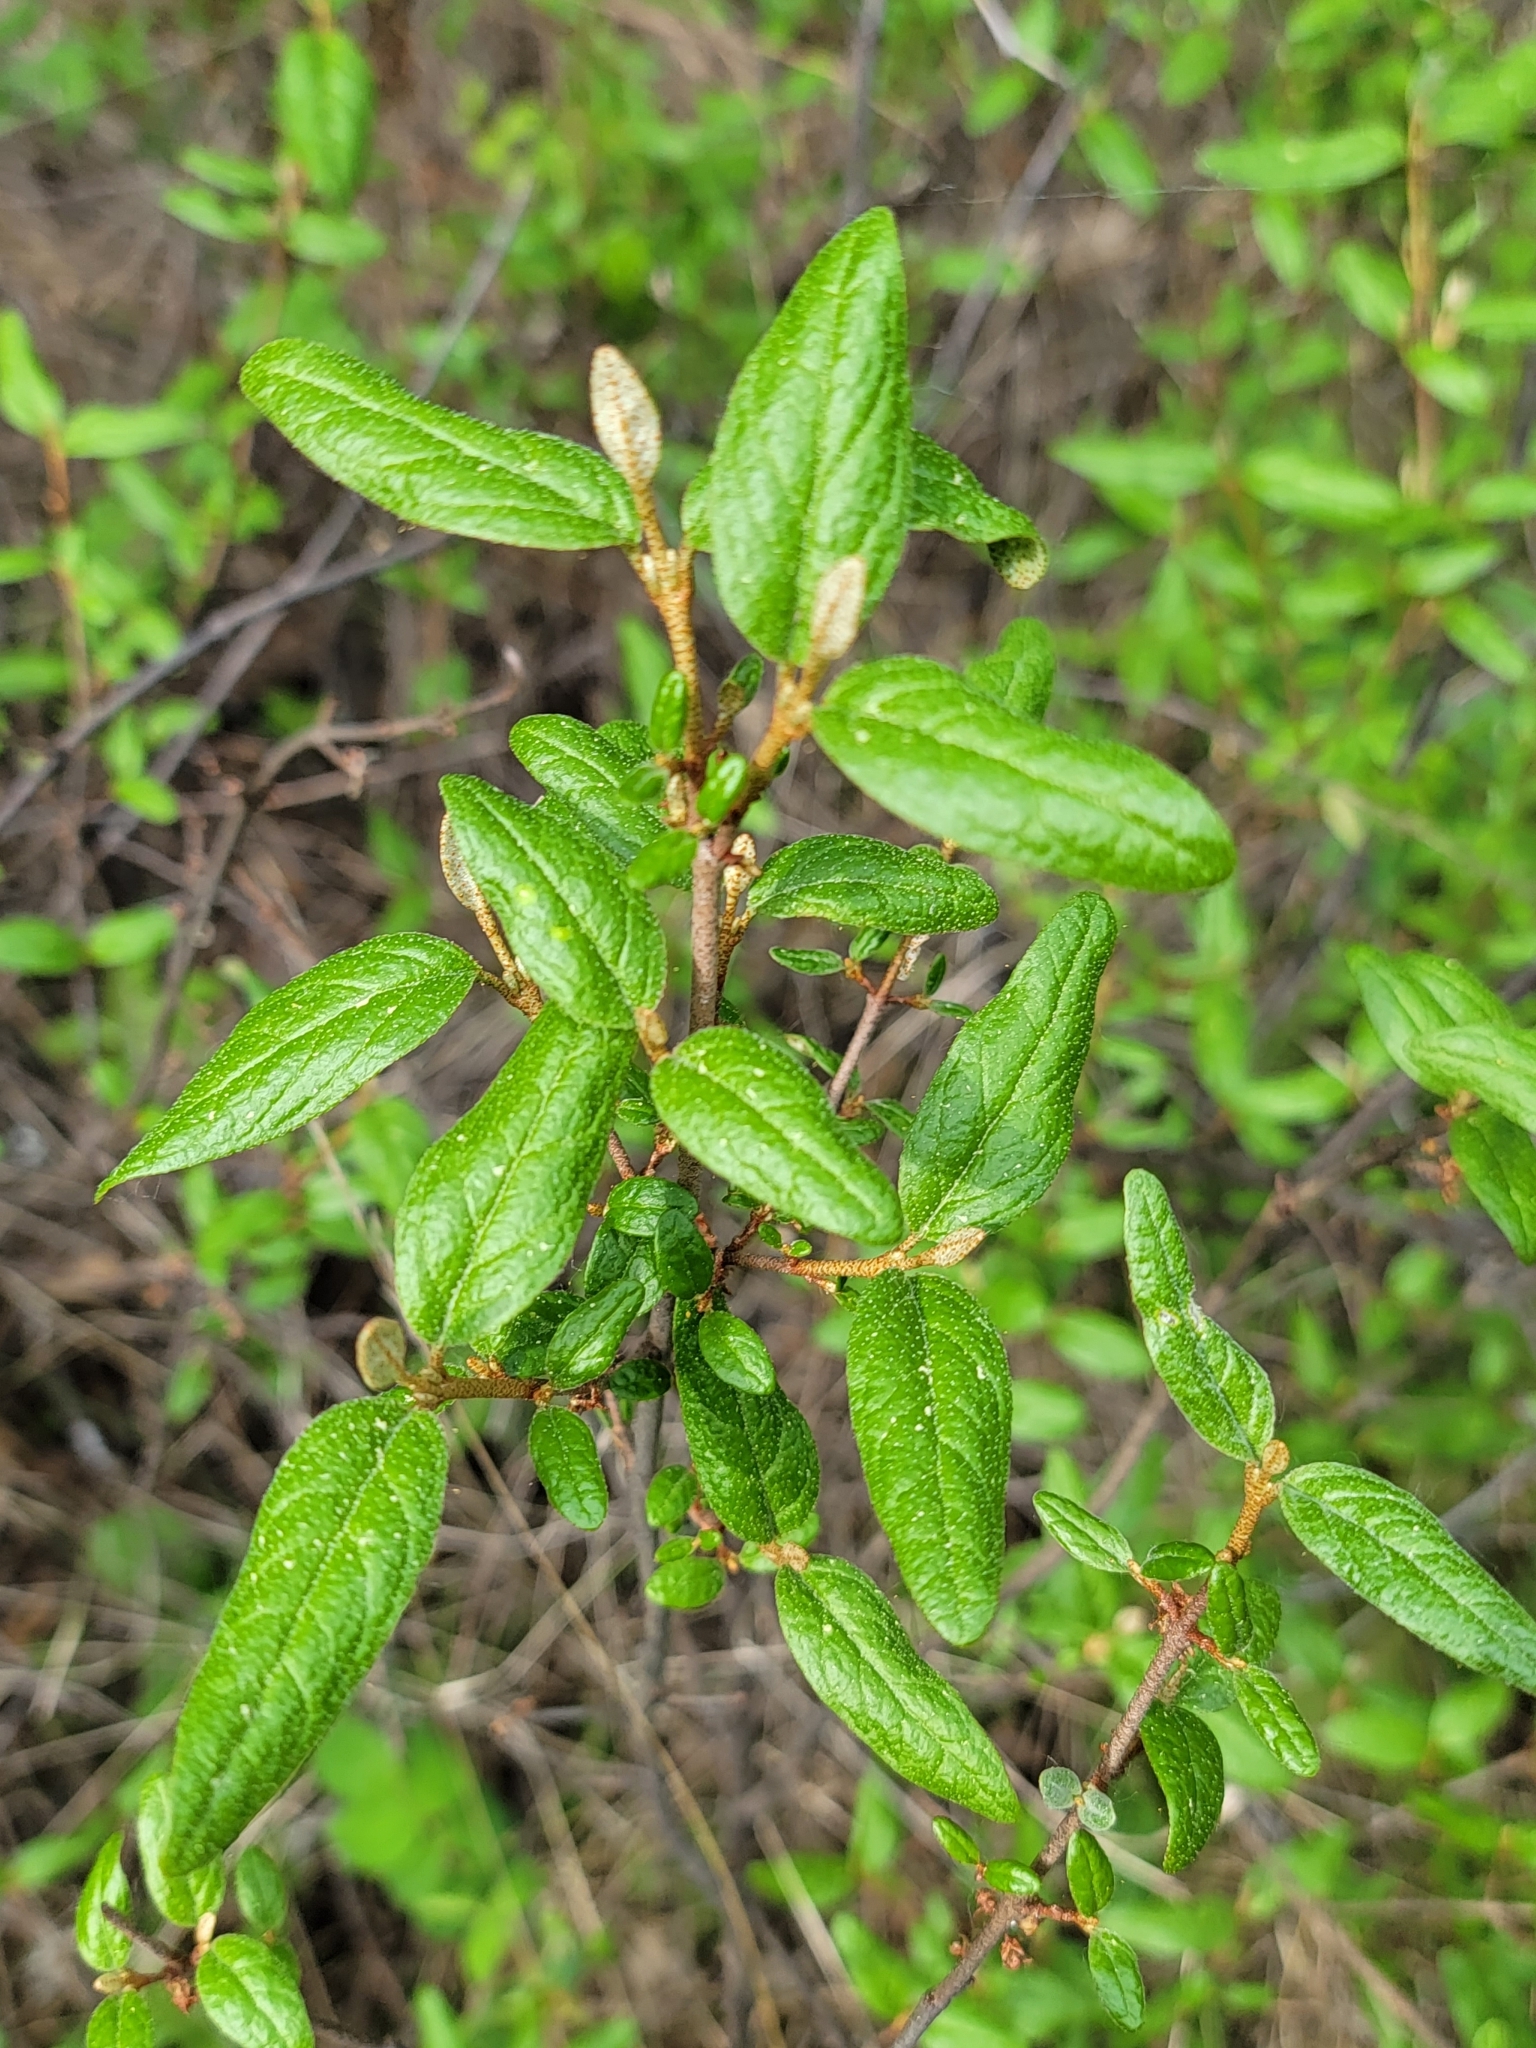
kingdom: Plantae
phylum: Tracheophyta
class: Magnoliopsida
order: Rosales
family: Elaeagnaceae
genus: Shepherdia
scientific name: Shepherdia canadensis
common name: Soapberry
